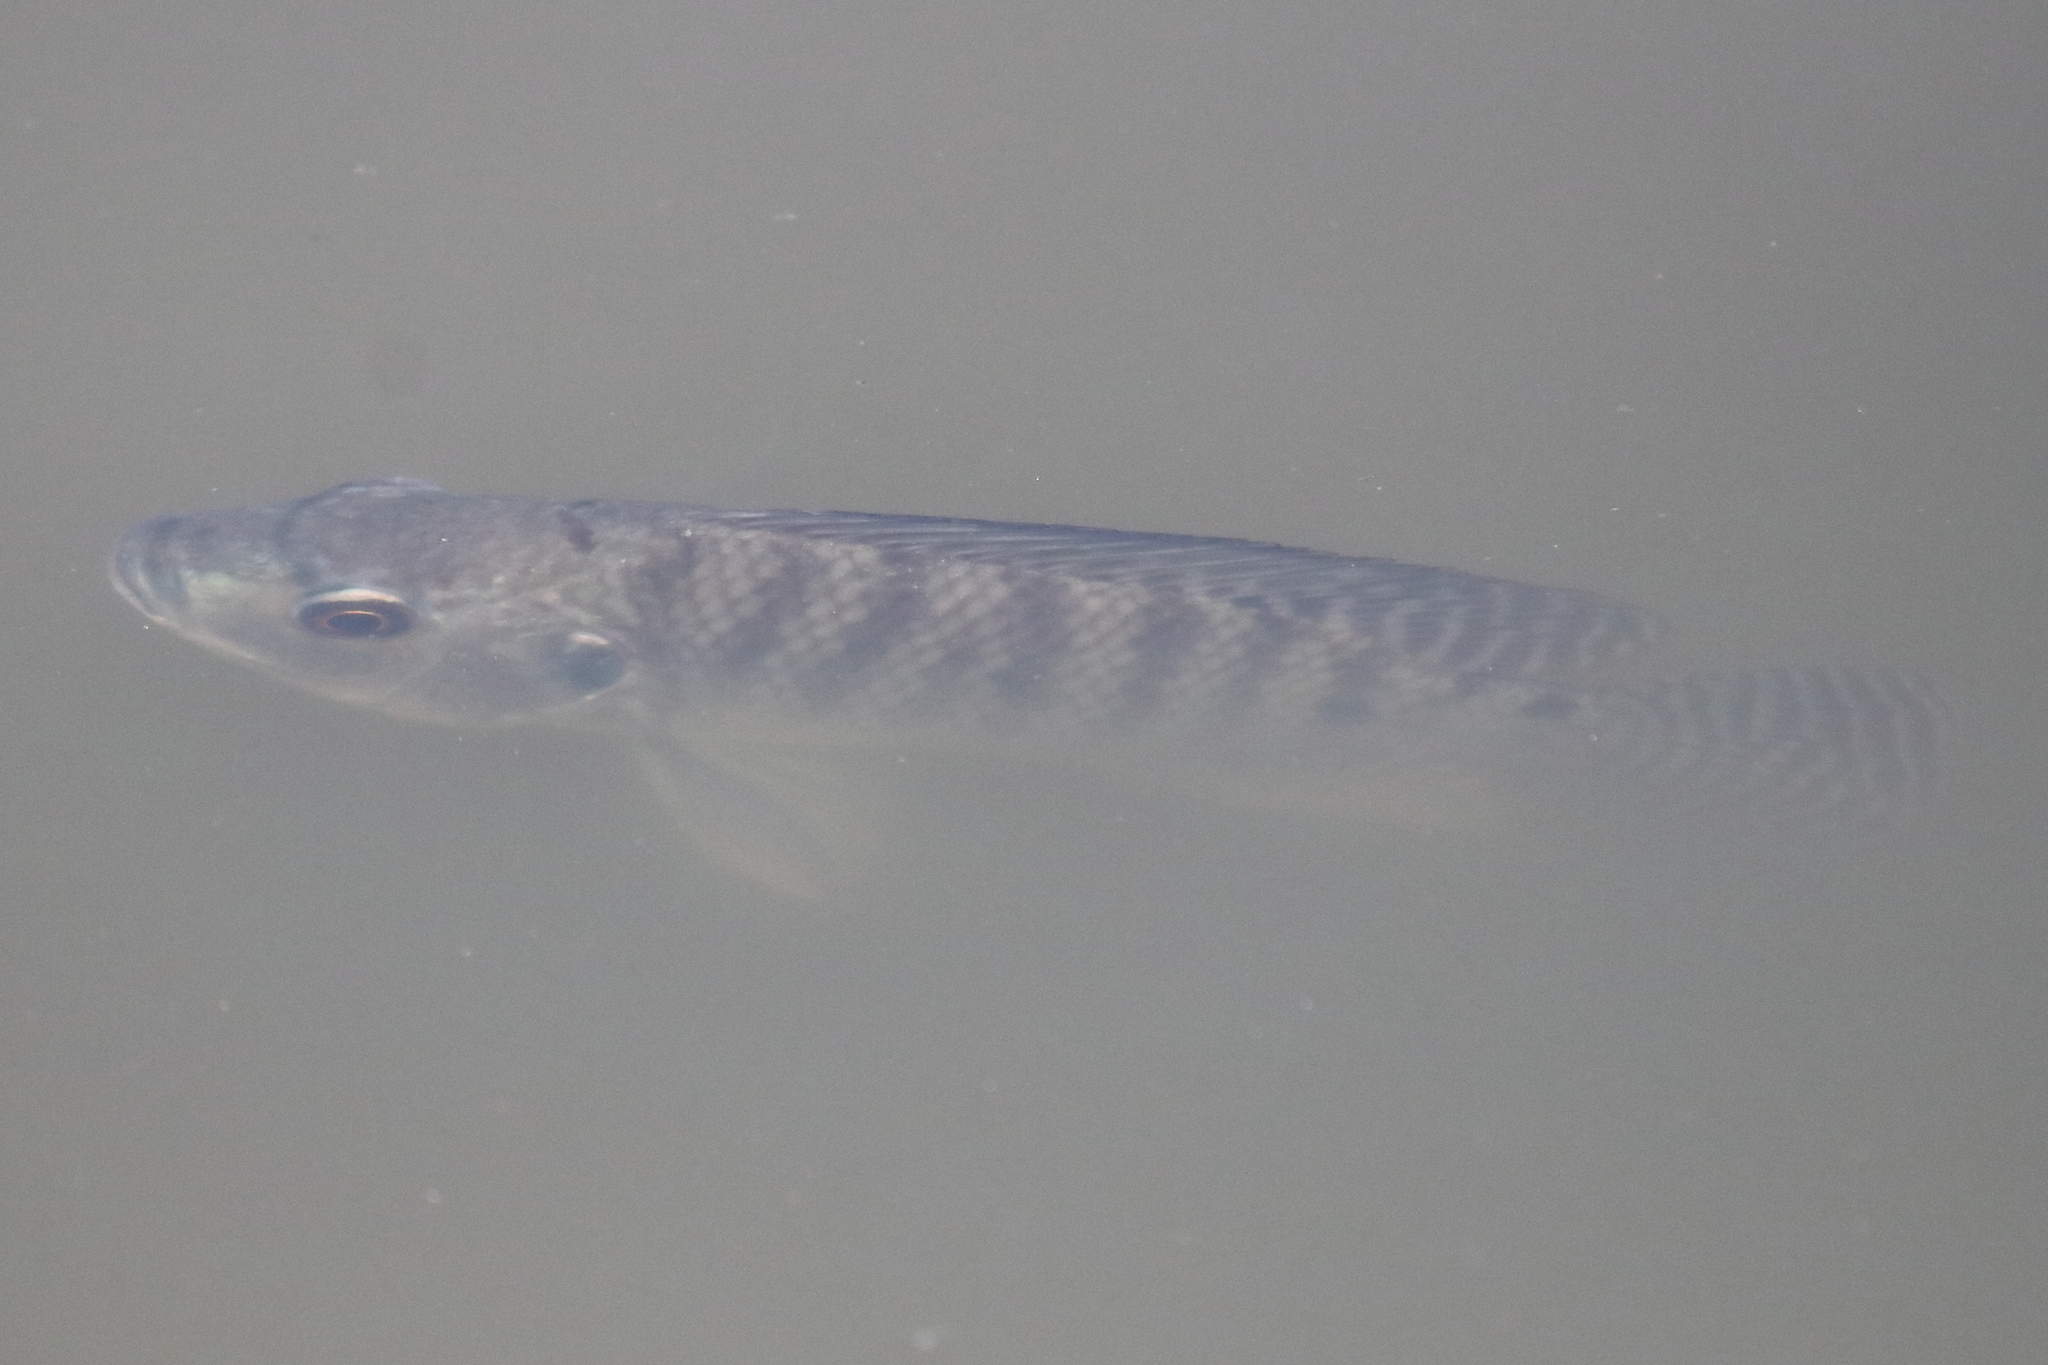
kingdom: Animalia
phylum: Chordata
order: Perciformes
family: Cichlidae
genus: Oreochromis
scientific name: Oreochromis niloticus
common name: Nile tilapia
